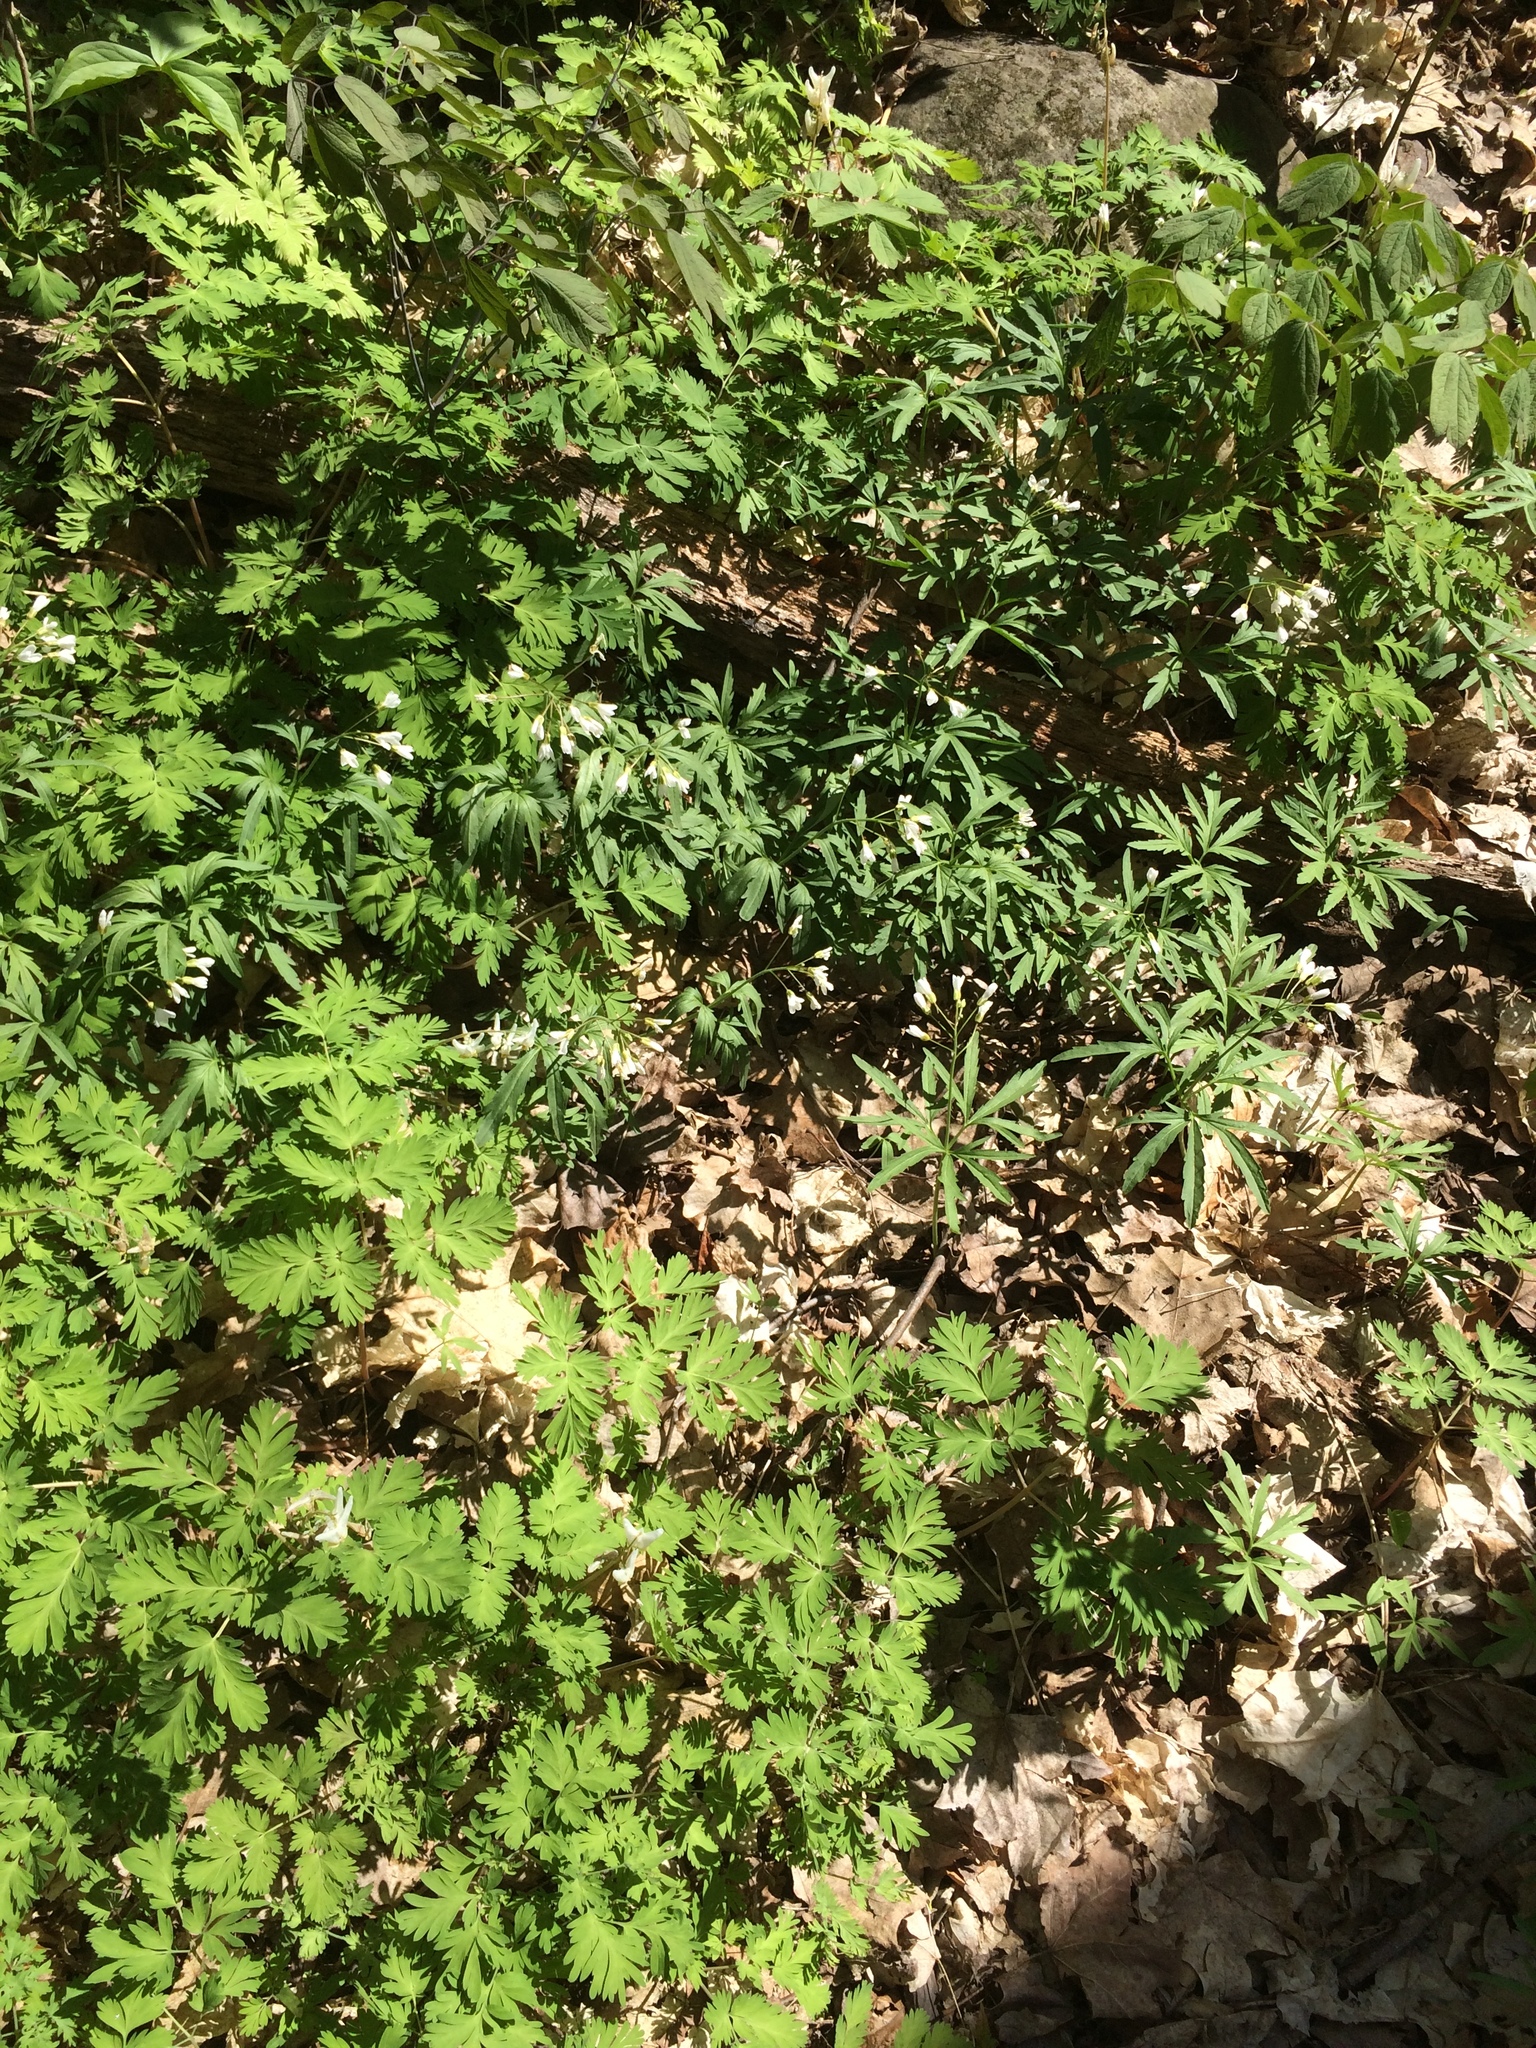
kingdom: Plantae
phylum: Tracheophyta
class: Magnoliopsida
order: Brassicales
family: Brassicaceae
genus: Cardamine
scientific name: Cardamine concatenata
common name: Cut-leaf toothcup
